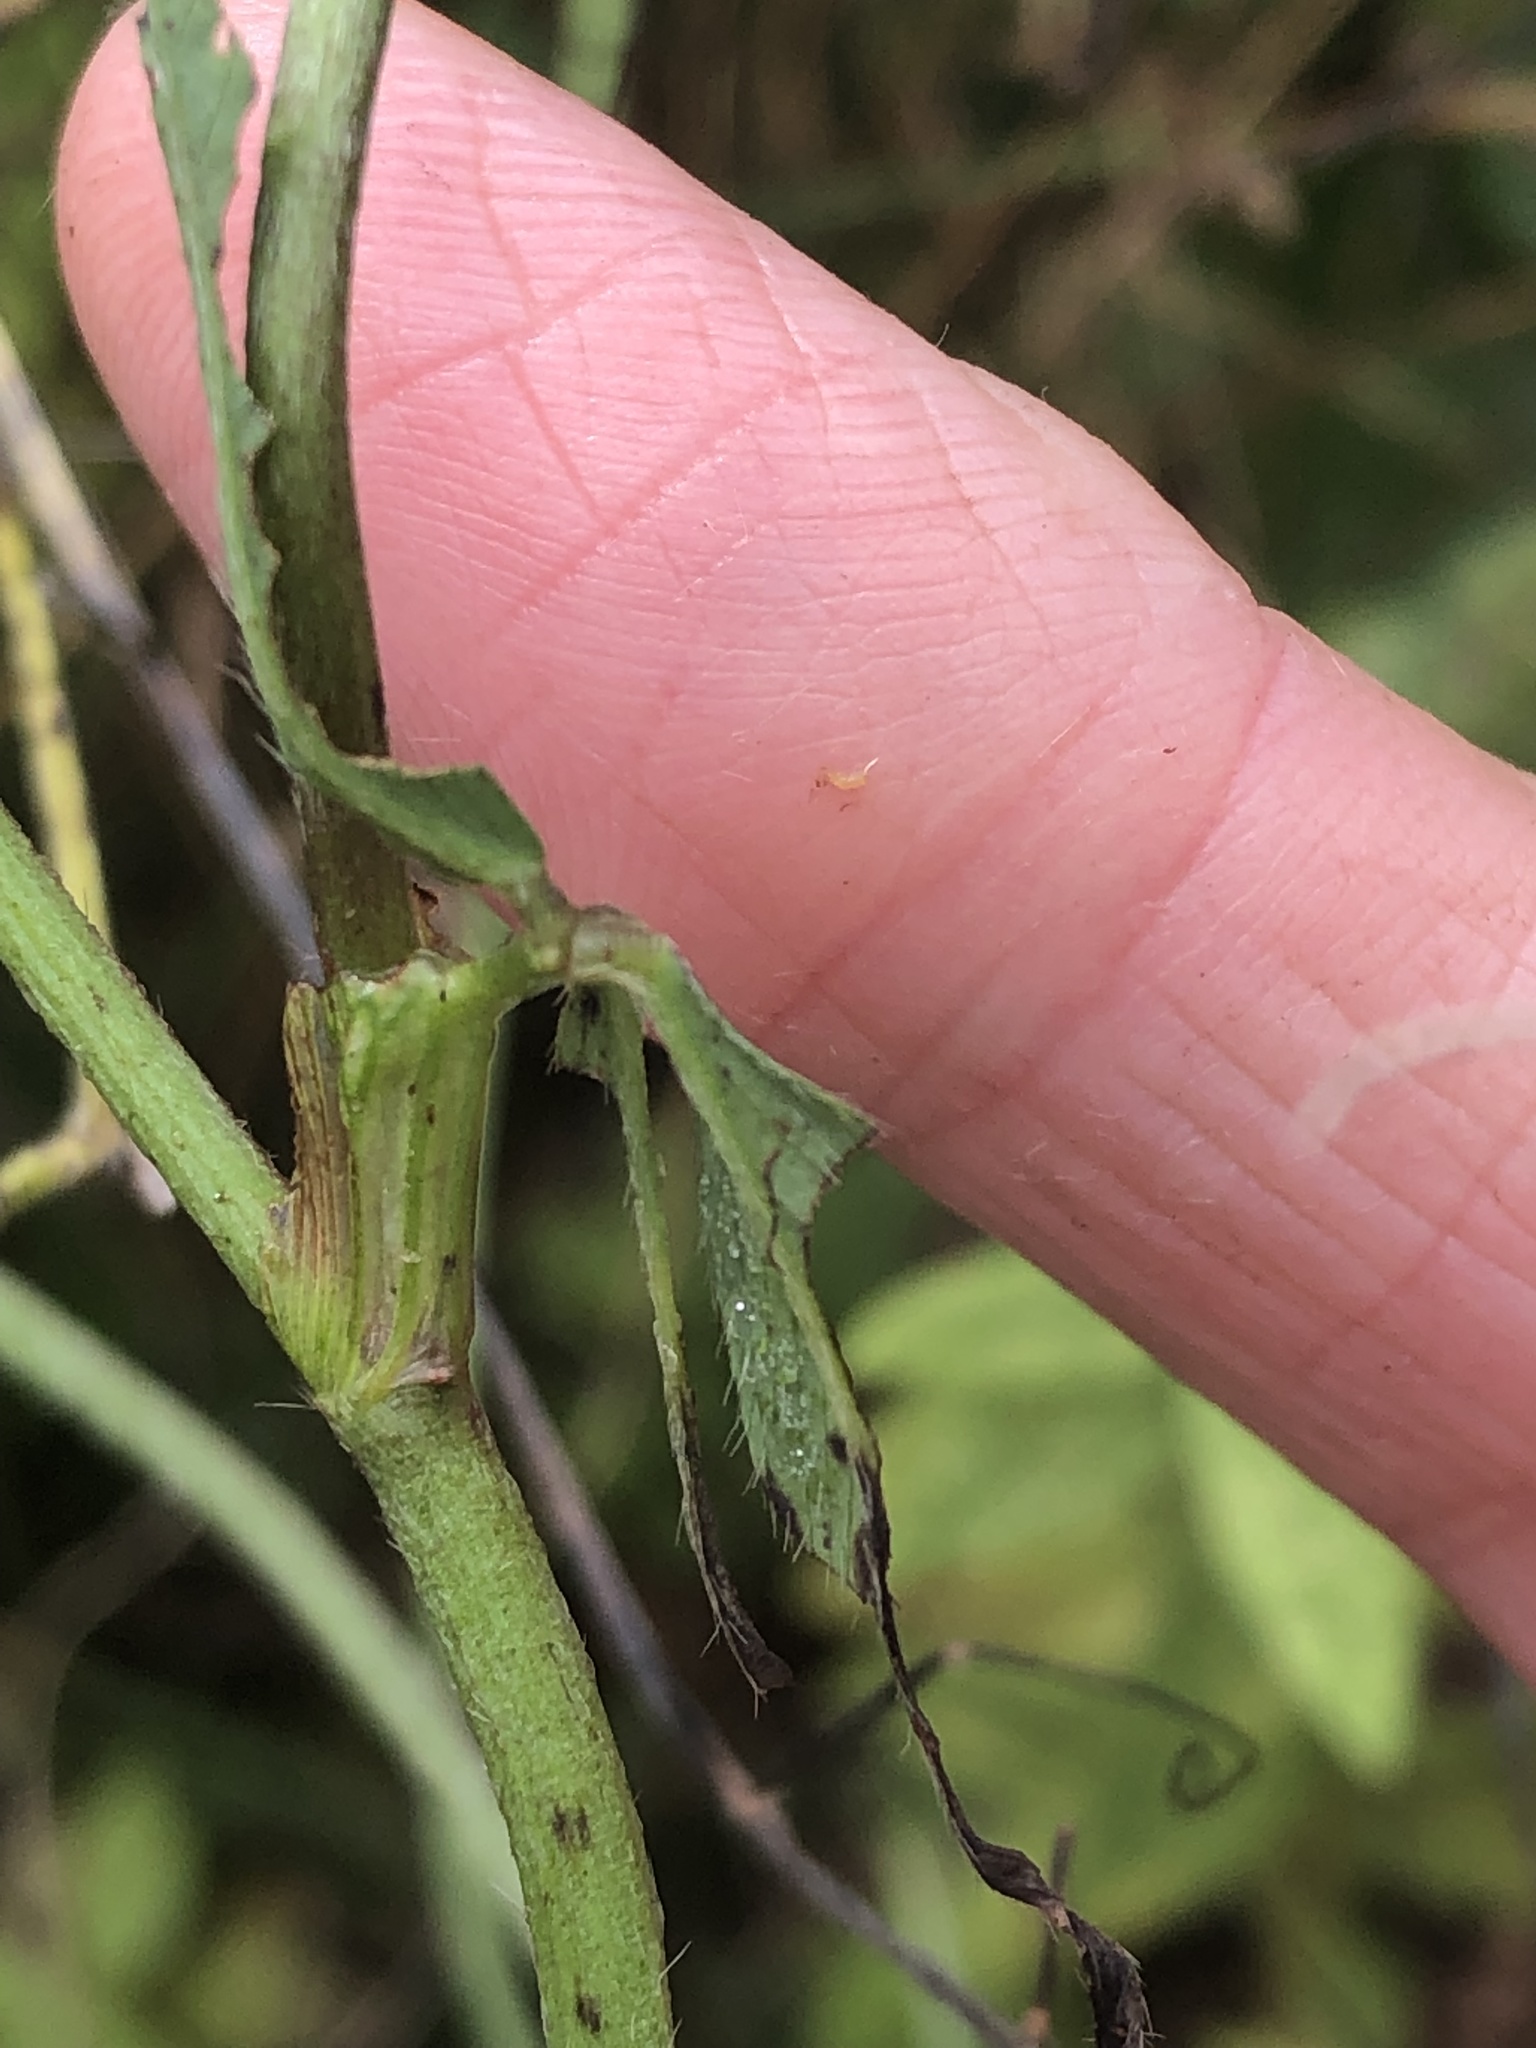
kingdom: Plantae
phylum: Tracheophyta
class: Magnoliopsida
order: Fabales
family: Fabaceae
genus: Trifolium
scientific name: Trifolium pratense
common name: Red clover
